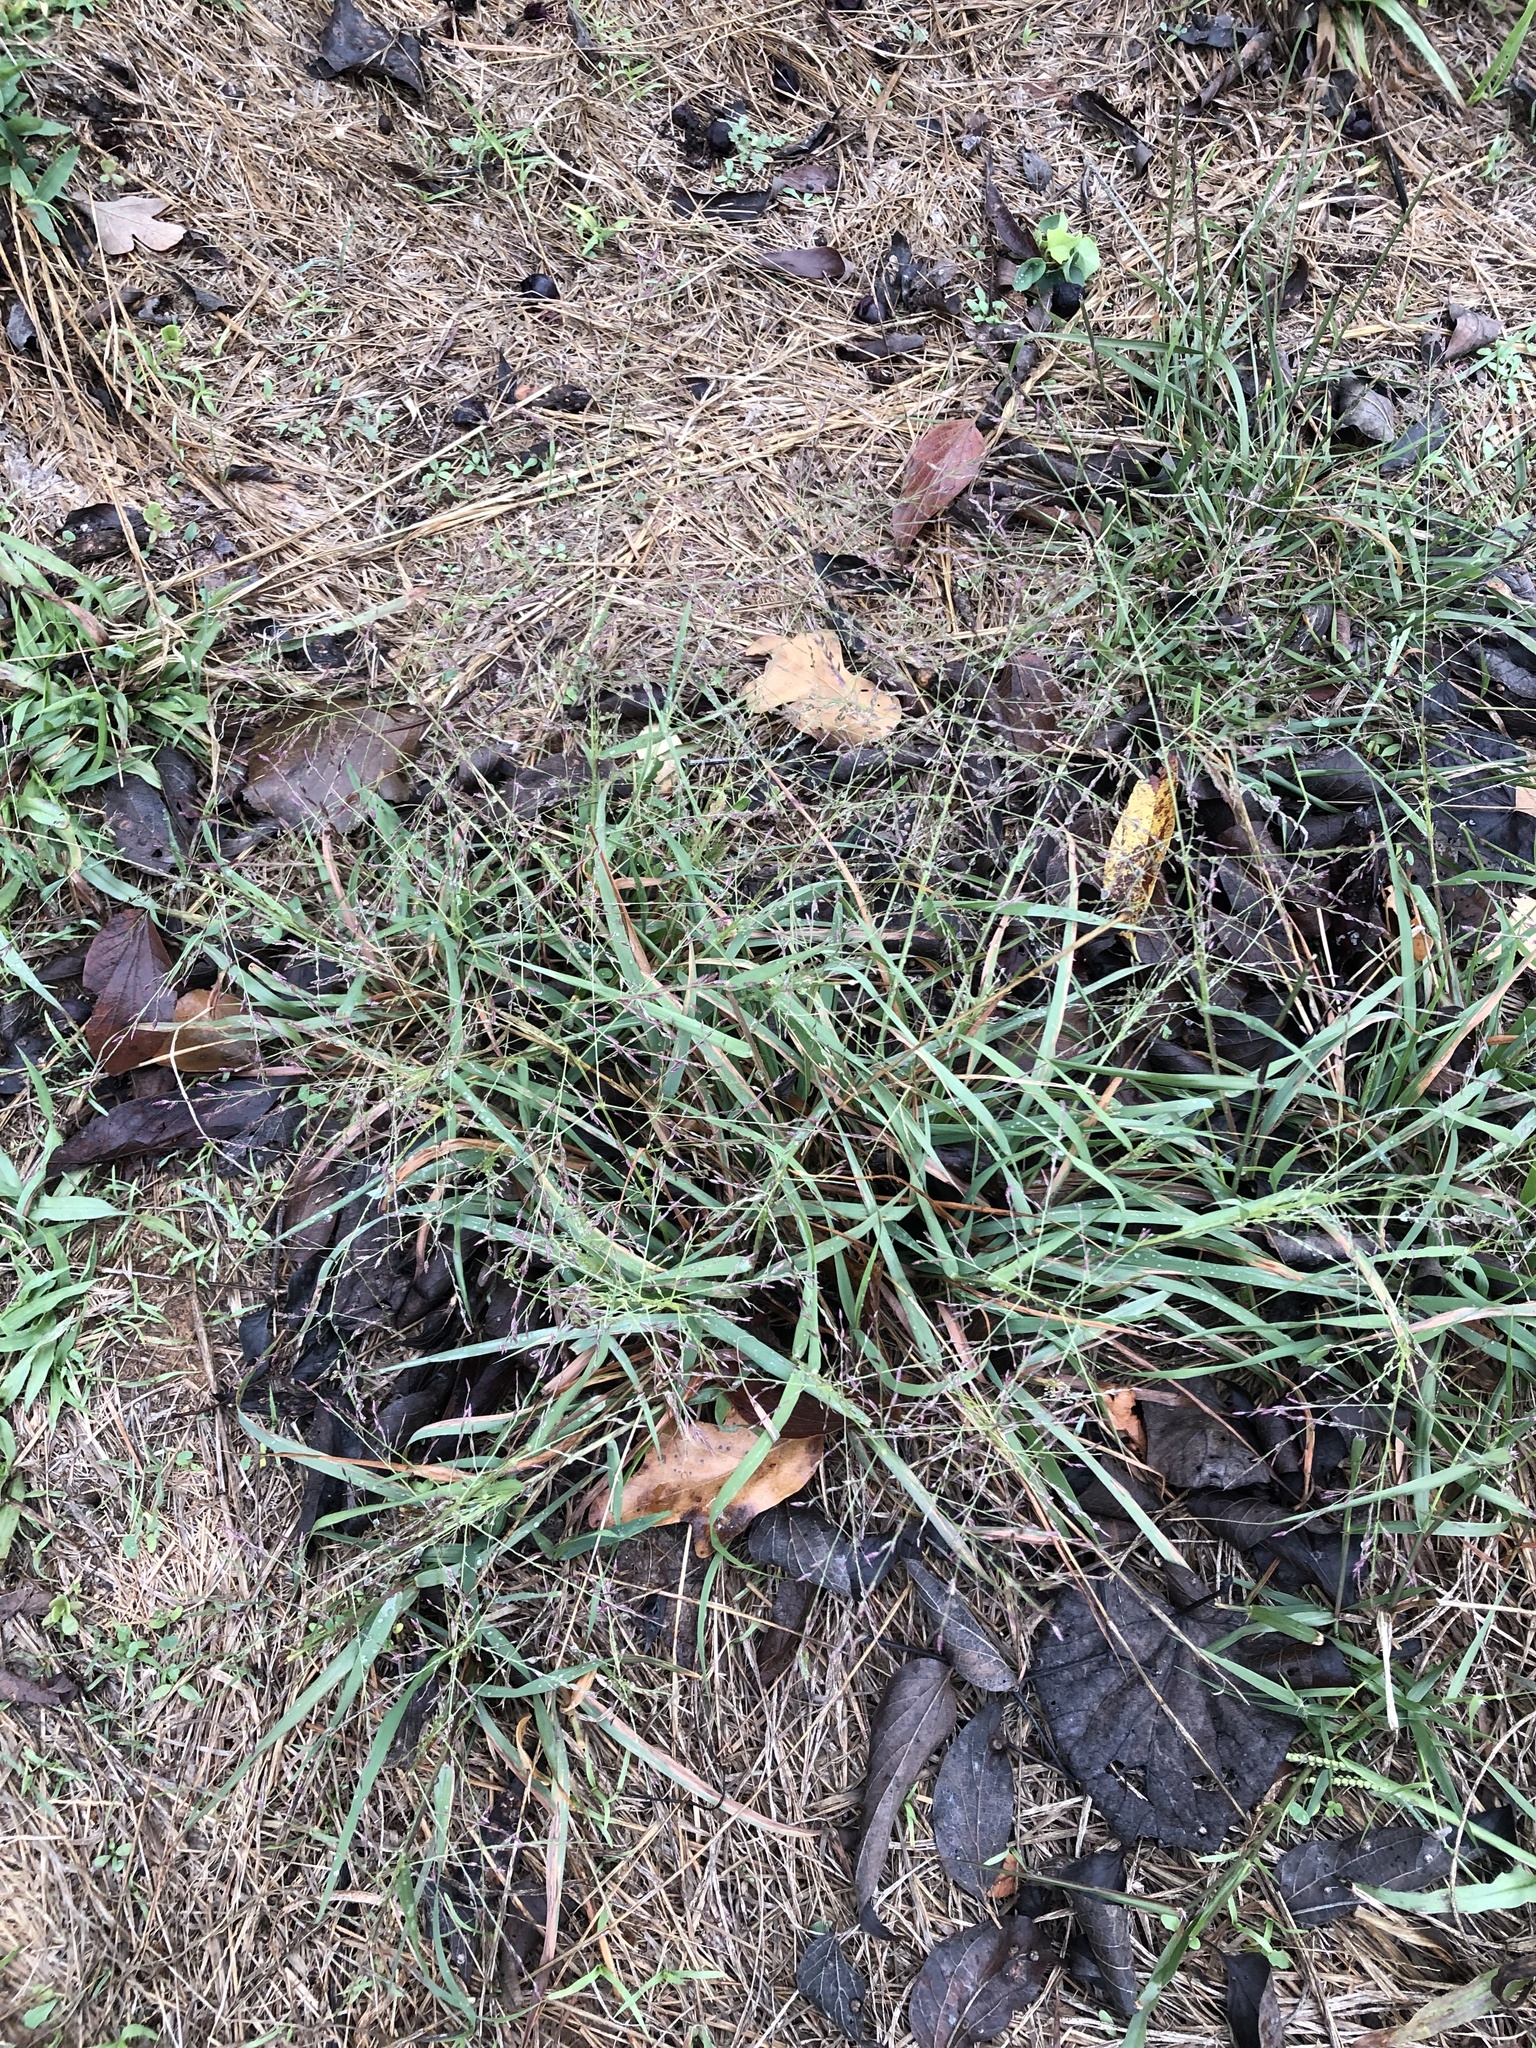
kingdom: Plantae
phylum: Tracheophyta
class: Liliopsida
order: Poales
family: Poaceae
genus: Eragrostis
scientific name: Eragrostis curtipedicellata
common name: Gummy love grass
